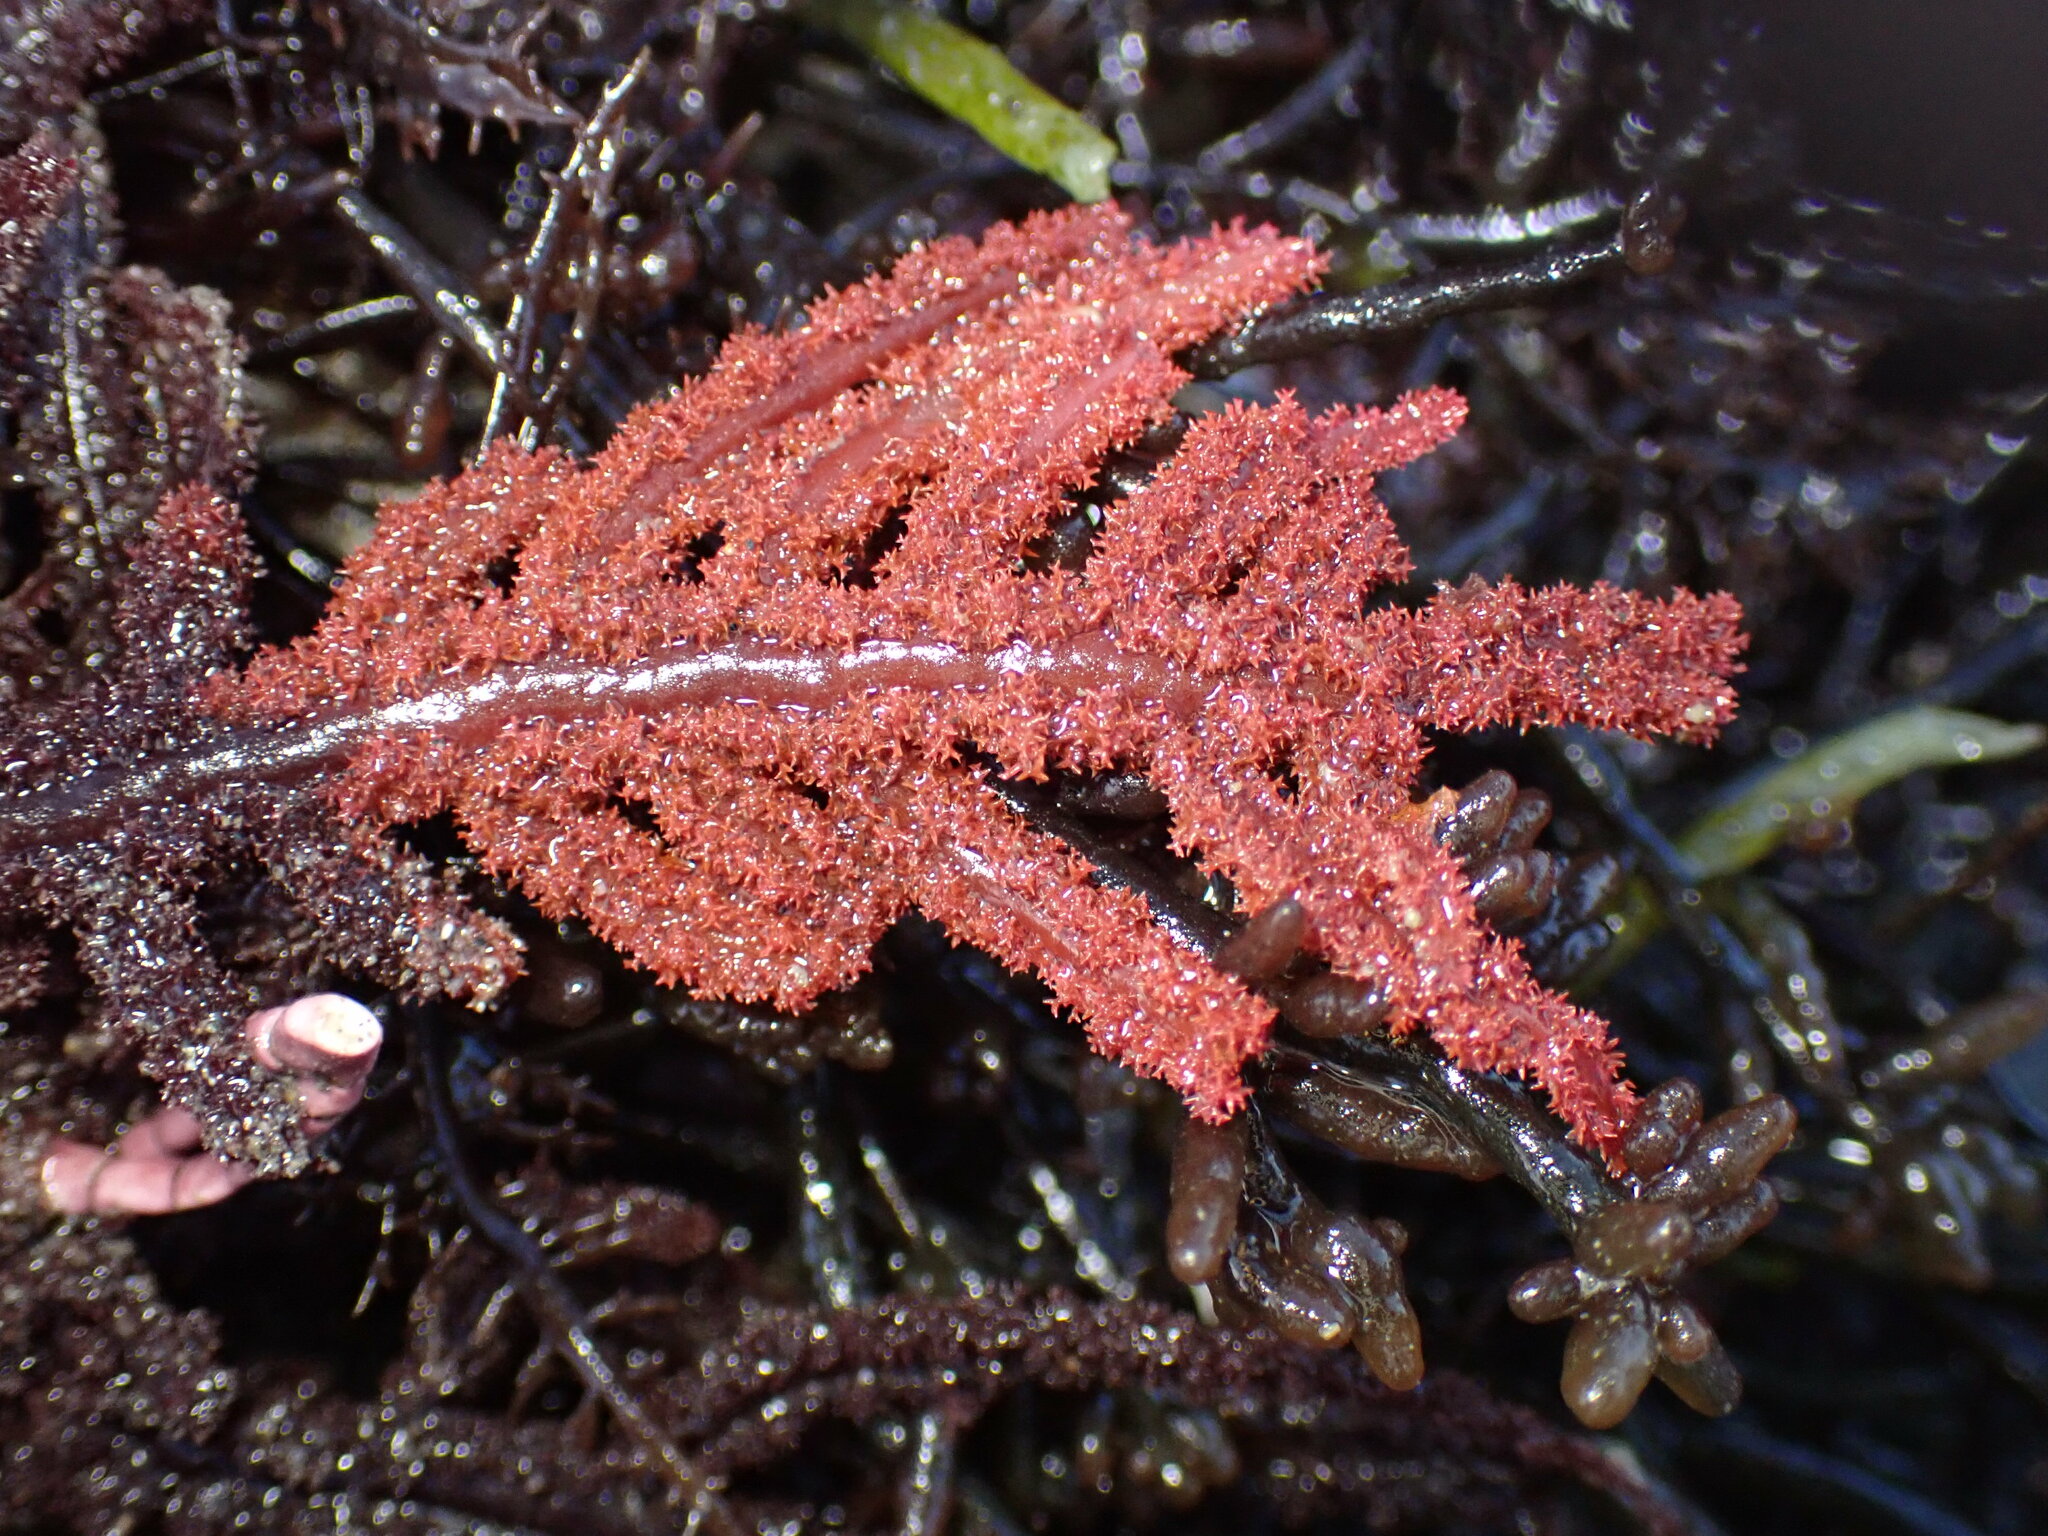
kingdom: Plantae
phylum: Rhodophyta
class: Florideophyceae
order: Ceramiales
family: Wrangeliaceae
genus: Neoptilota
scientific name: Neoptilota densa
